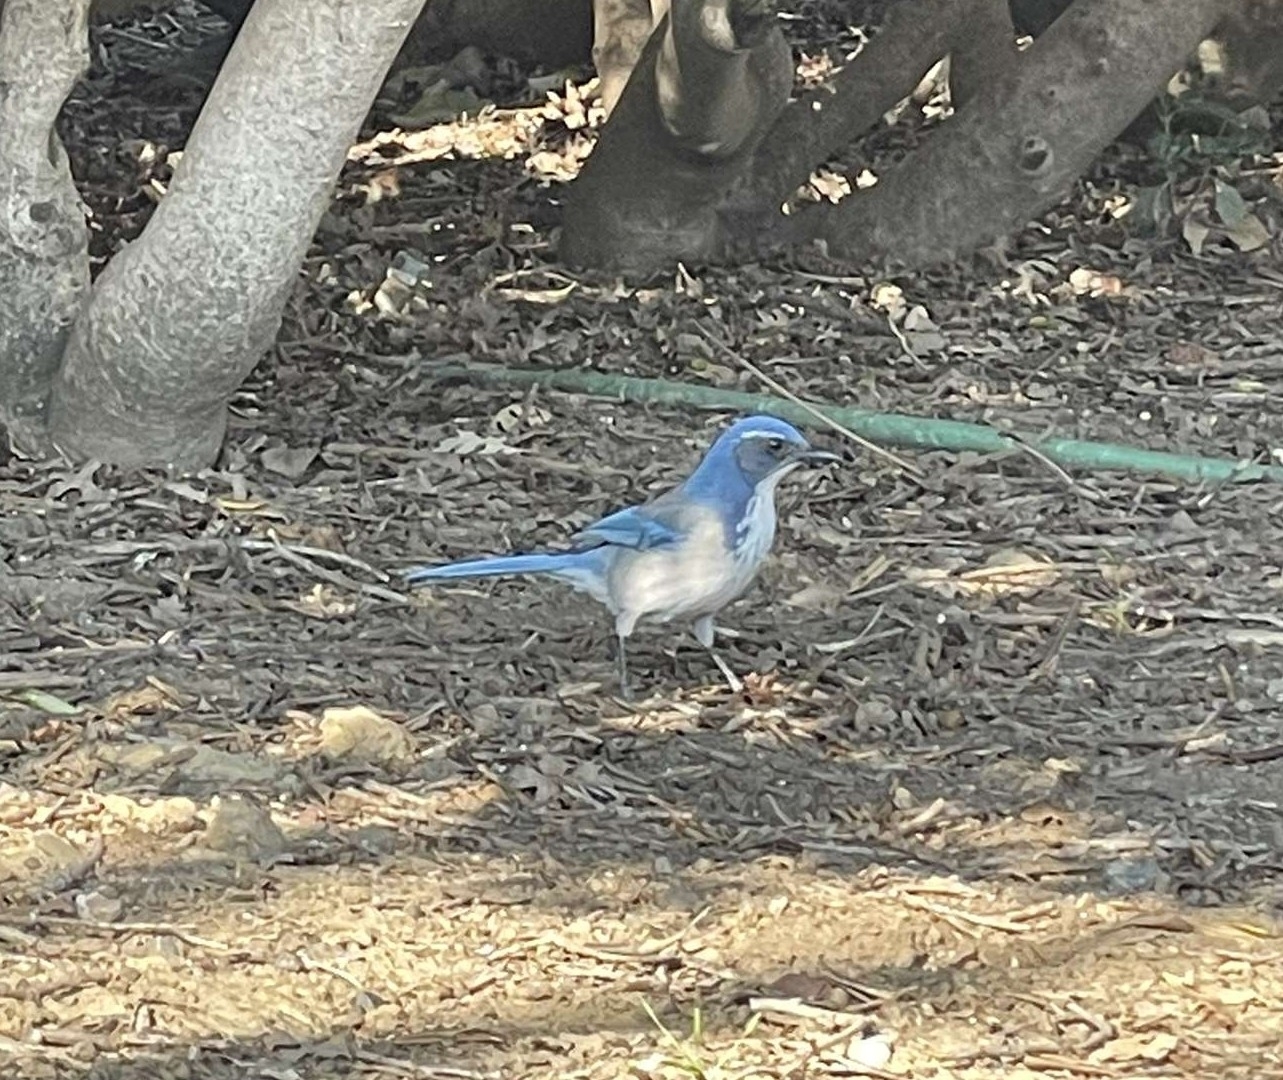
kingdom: Animalia
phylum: Chordata
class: Aves
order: Passeriformes
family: Corvidae
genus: Aphelocoma
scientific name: Aphelocoma californica
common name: California scrub-jay
